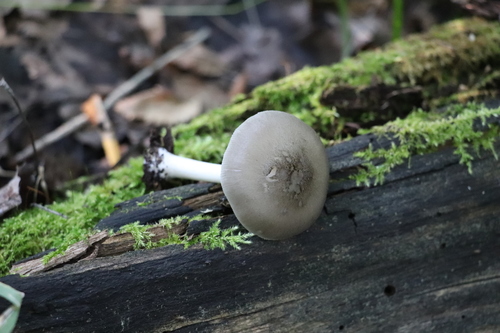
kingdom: Fungi
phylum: Basidiomycota
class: Agaricomycetes
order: Agaricales
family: Pluteaceae
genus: Pluteus
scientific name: Pluteus salicinus
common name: Willow shield
